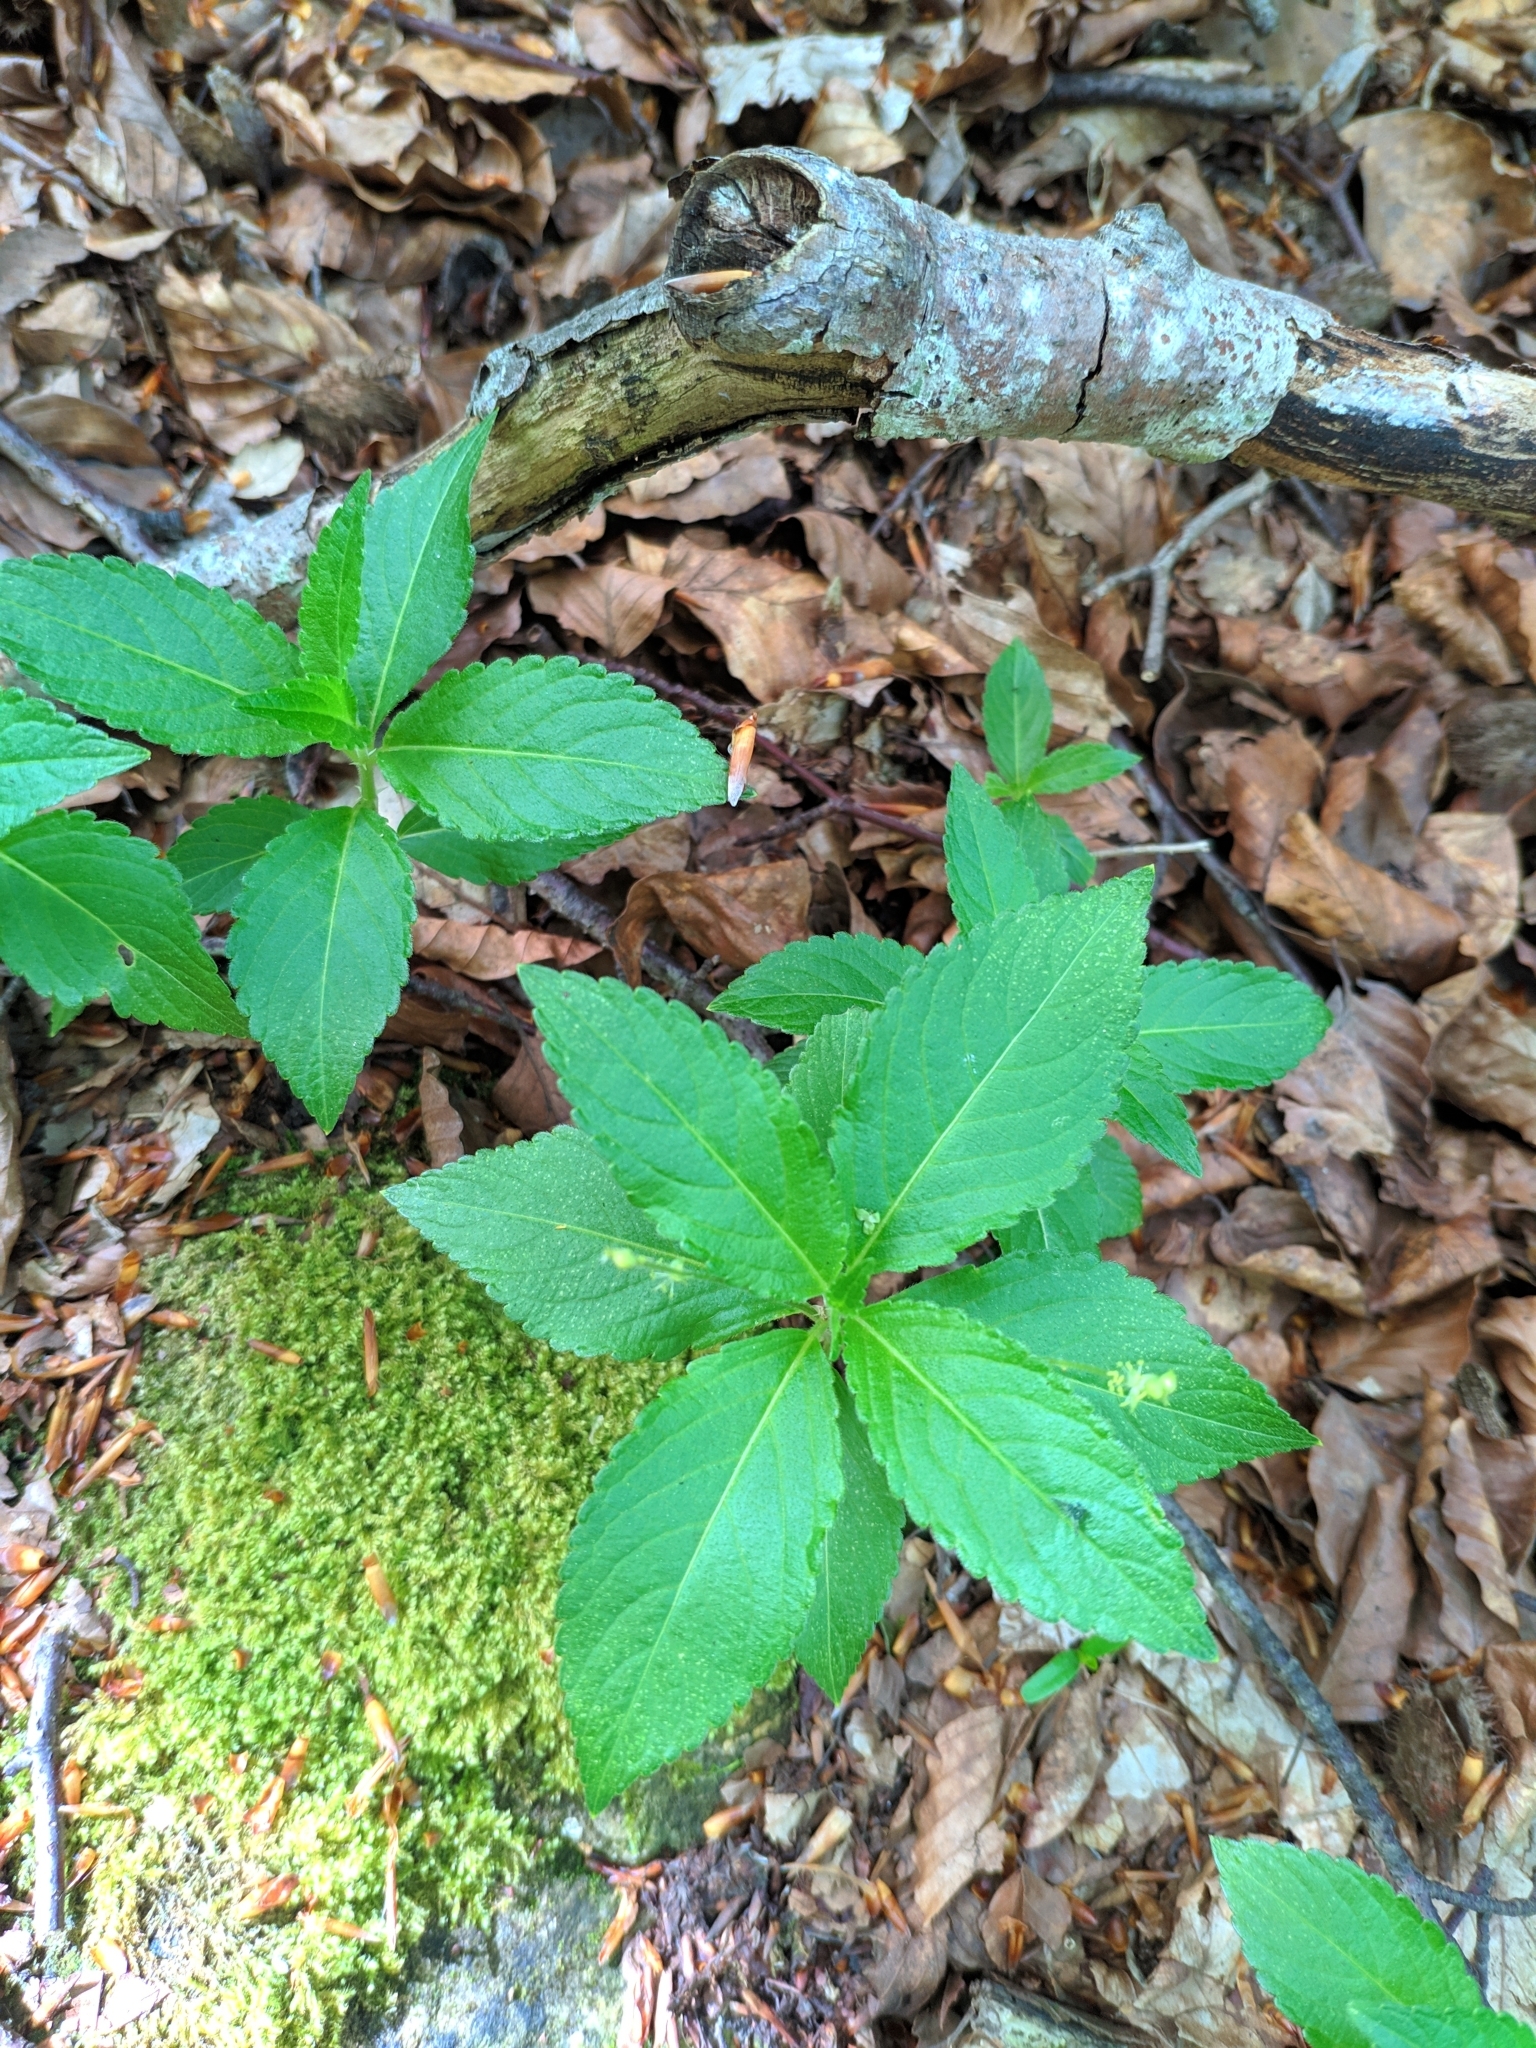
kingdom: Plantae
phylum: Tracheophyta
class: Magnoliopsida
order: Malpighiales
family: Euphorbiaceae
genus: Mercurialis
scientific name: Mercurialis perennis
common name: Dog mercury
